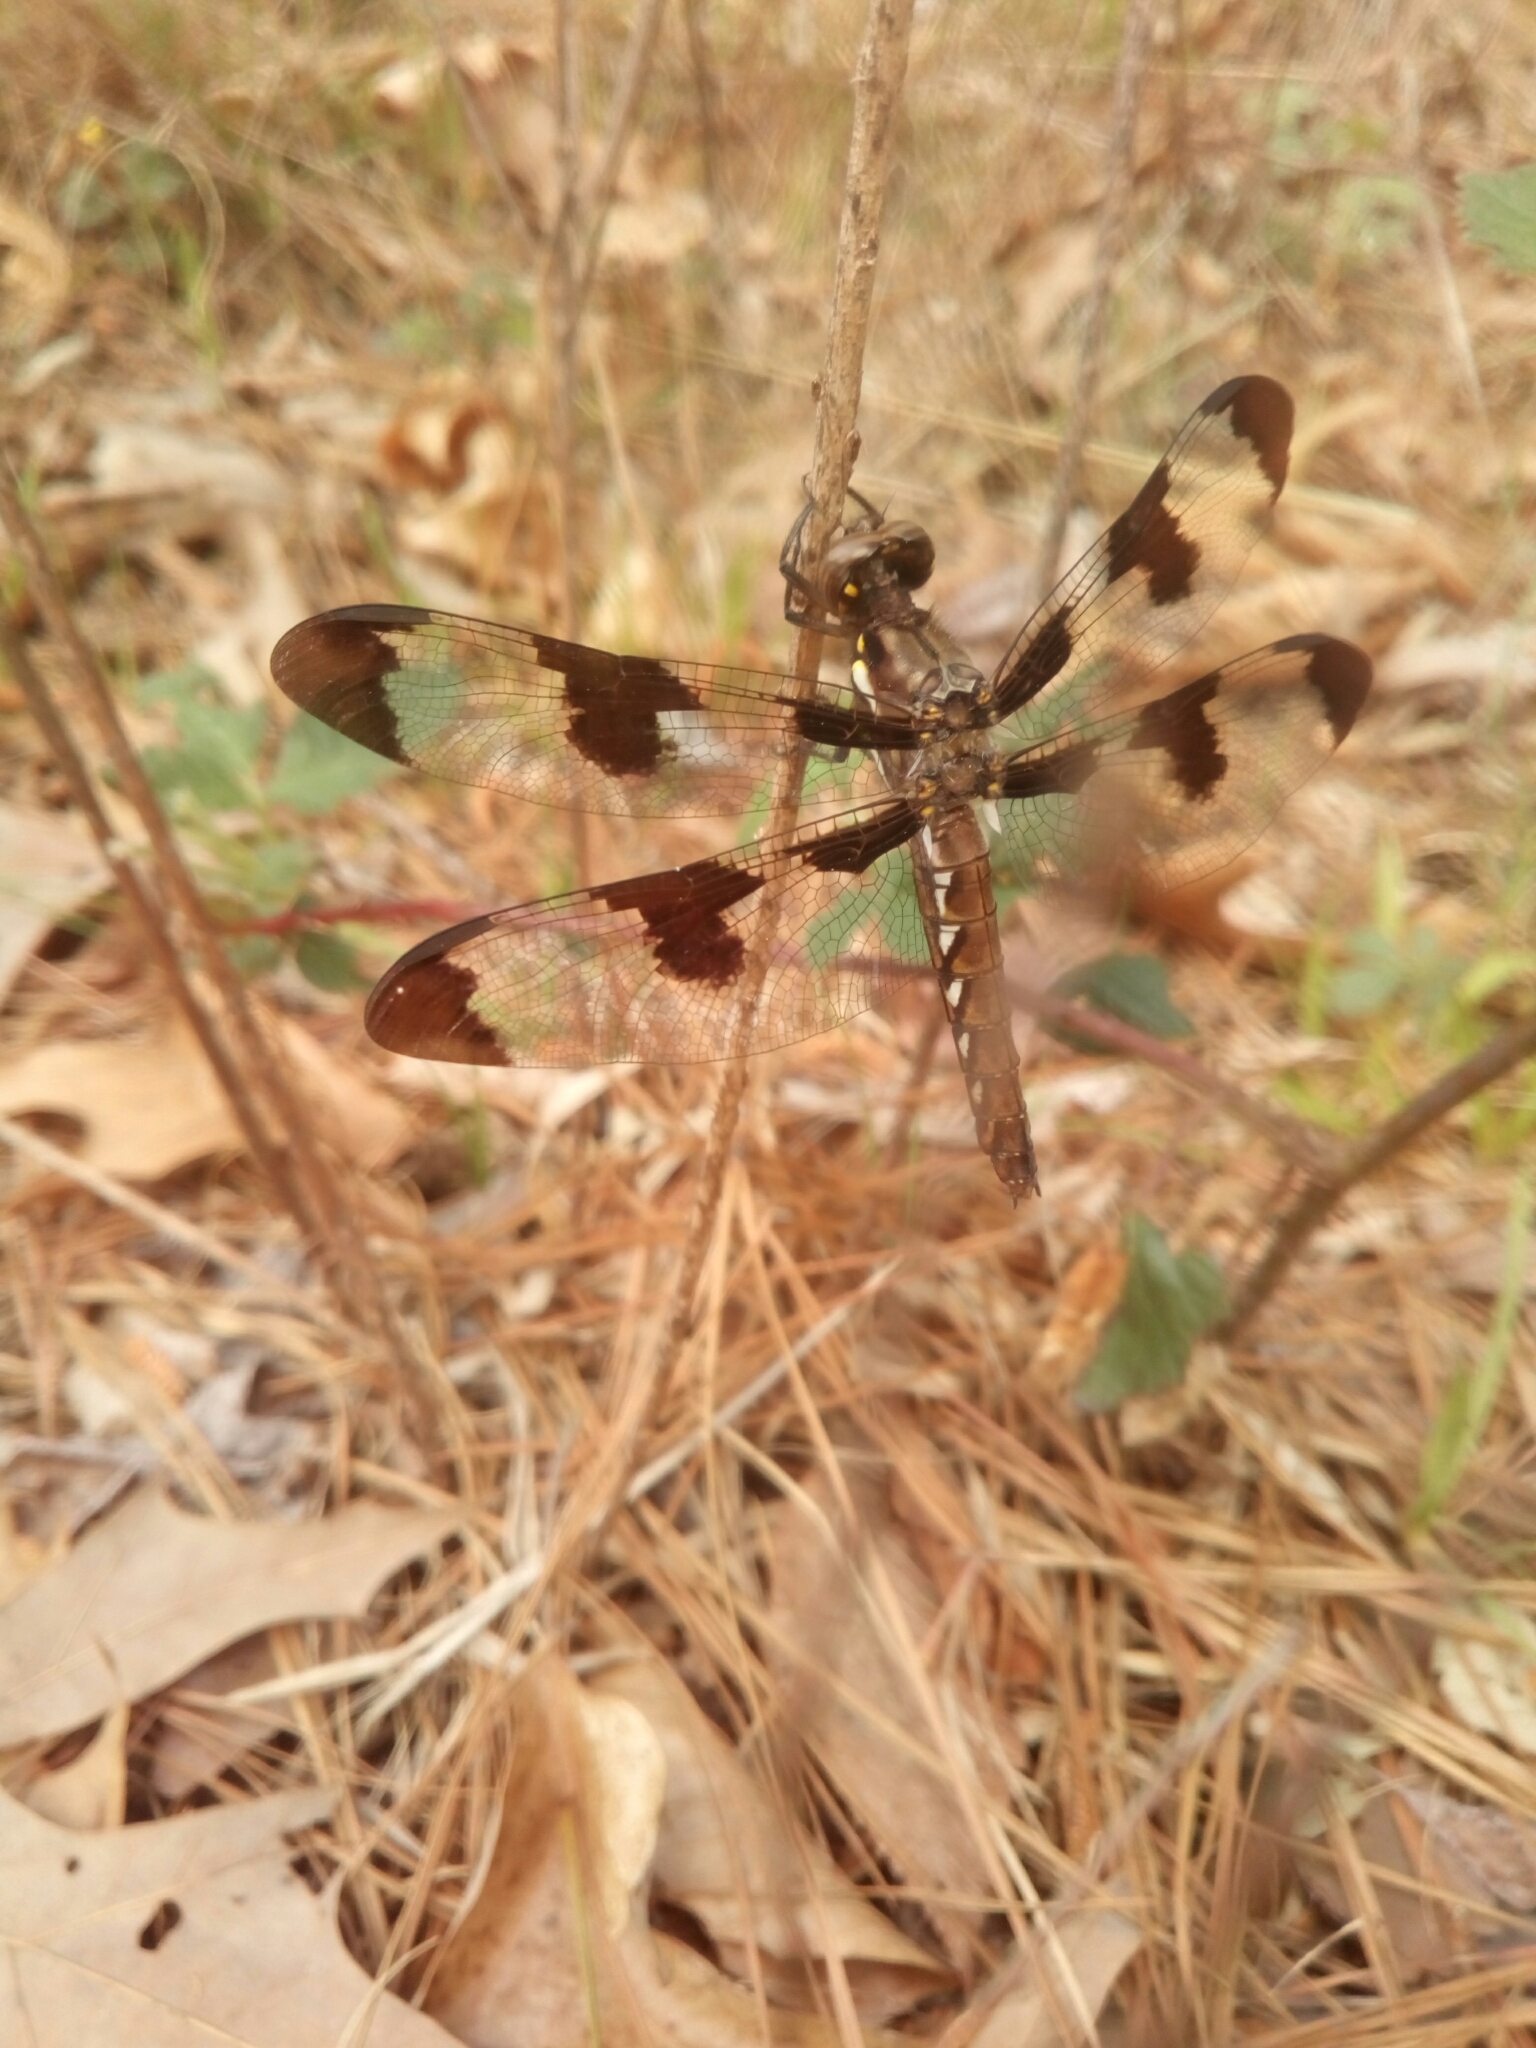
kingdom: Animalia
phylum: Arthropoda
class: Insecta
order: Odonata
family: Libellulidae
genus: Plathemis
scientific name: Plathemis lydia
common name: Common whitetail
